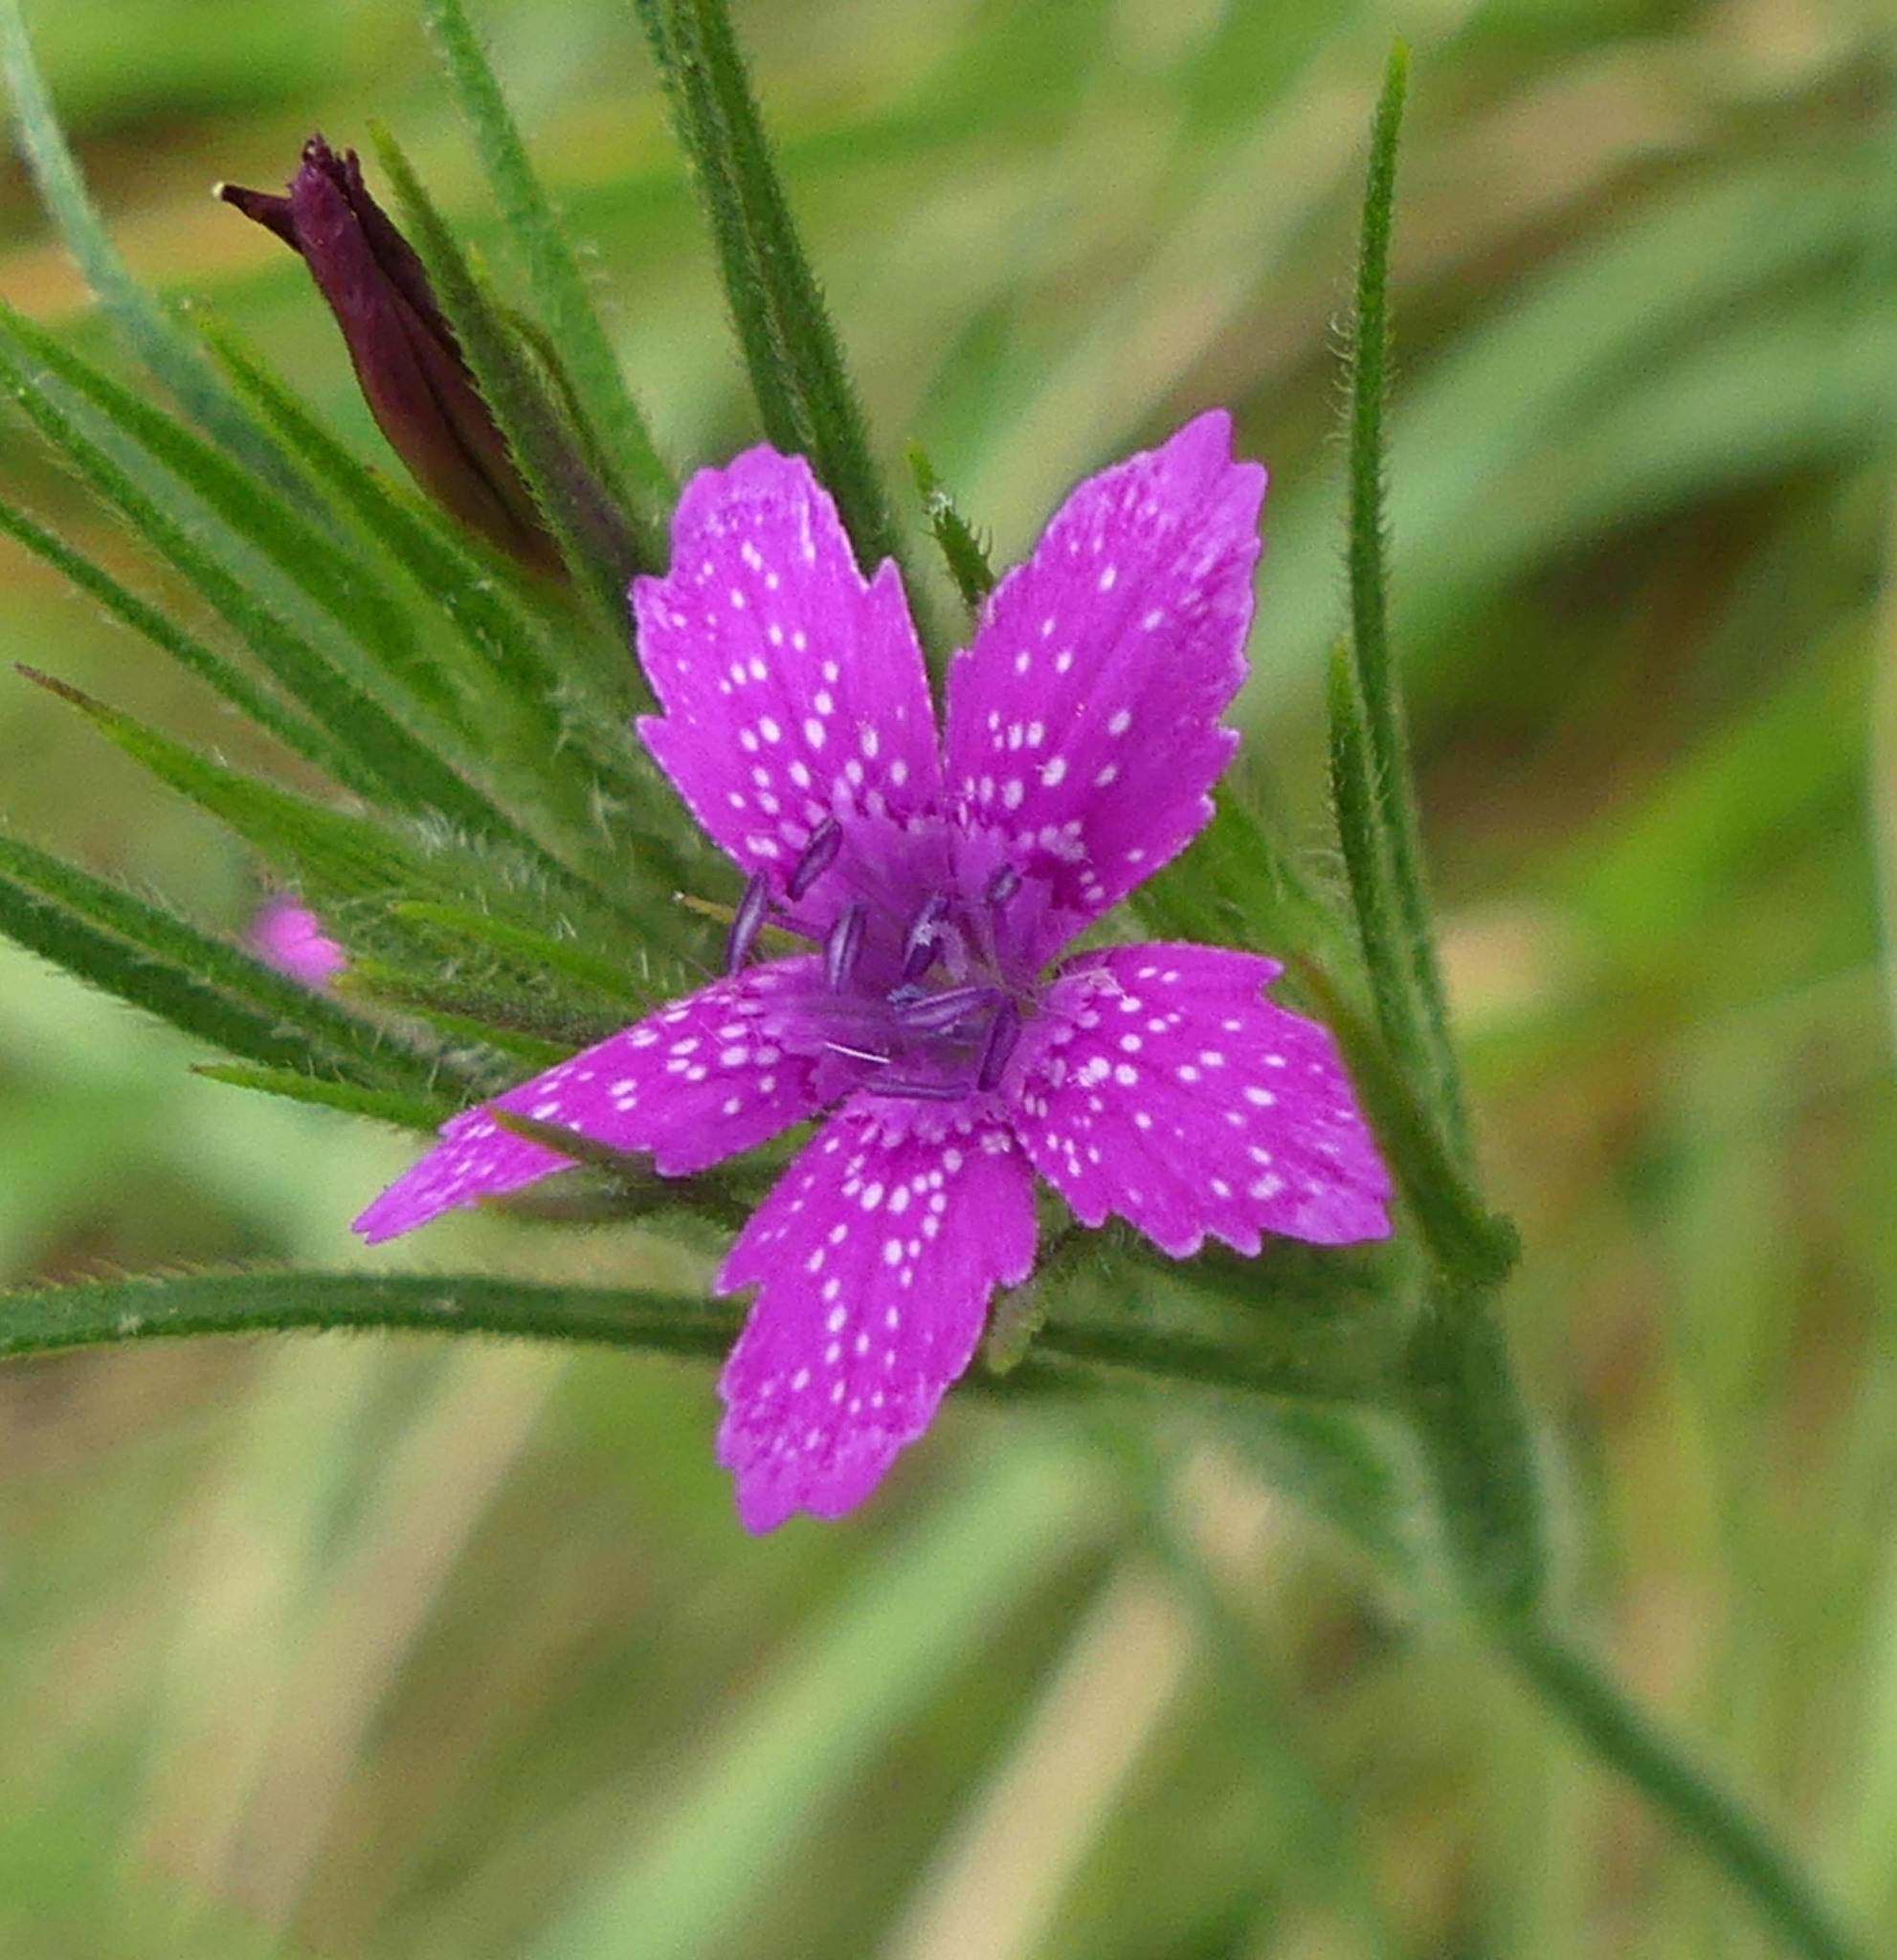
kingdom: Plantae
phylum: Tracheophyta
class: Magnoliopsida
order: Caryophyllales
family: Caryophyllaceae
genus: Dianthus
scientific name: Dianthus armeria
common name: Deptford pink
